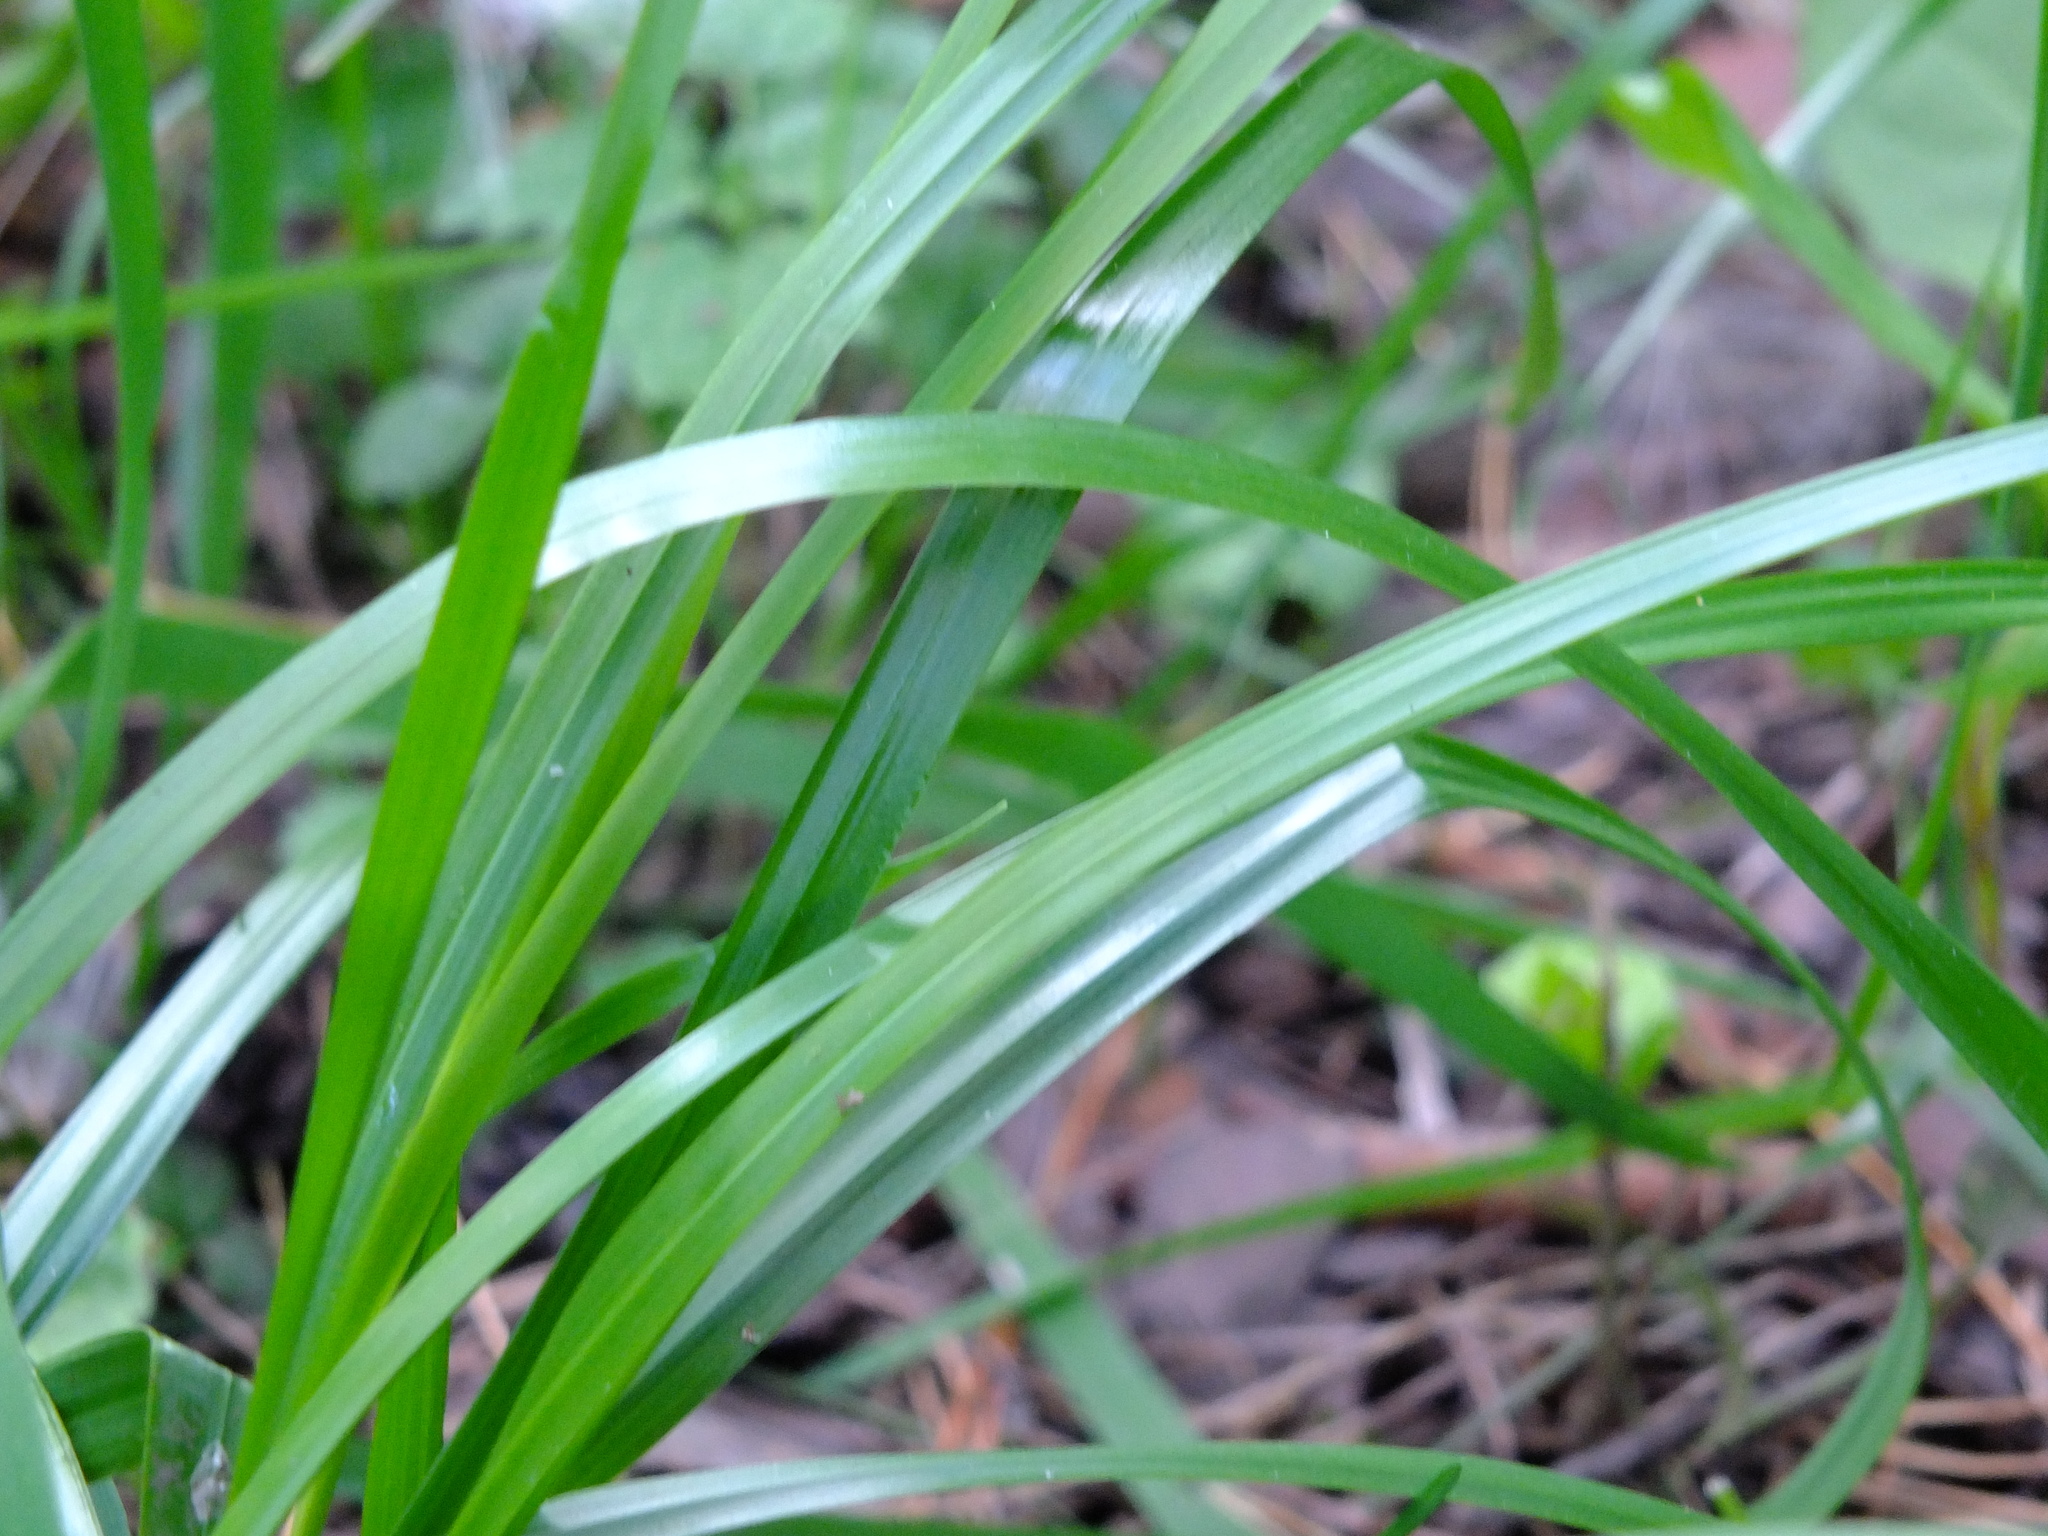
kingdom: Plantae
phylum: Tracheophyta
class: Liliopsida
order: Poales
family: Poaceae
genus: Lolium
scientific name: Lolium giganteum
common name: Giant fescue
